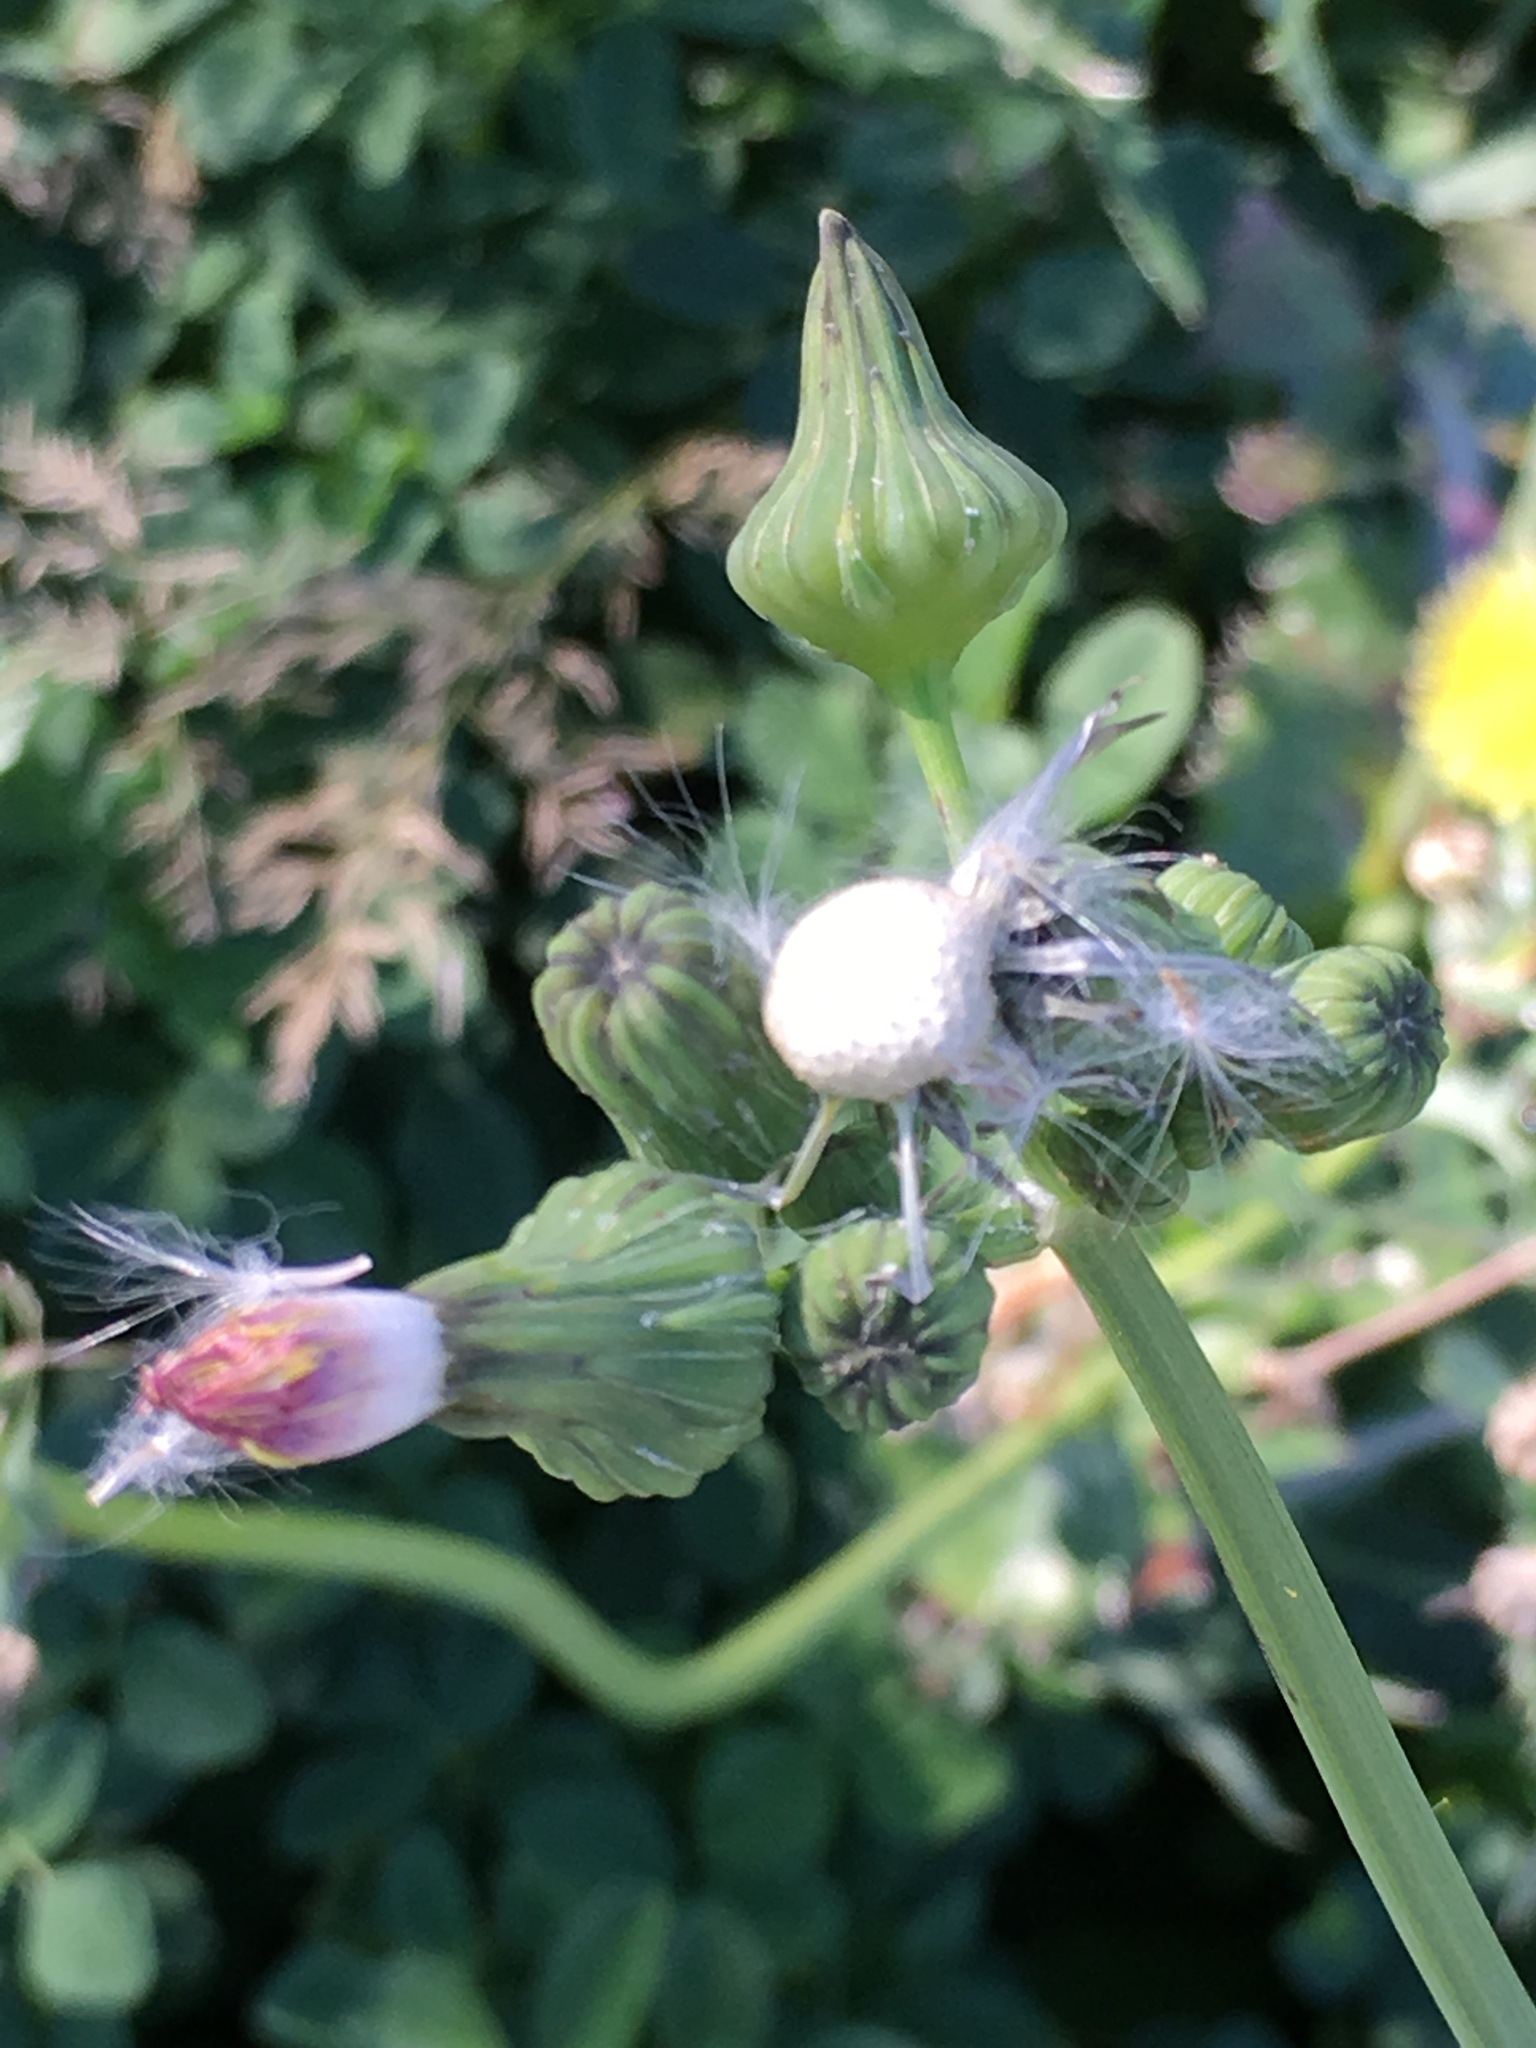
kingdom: Plantae
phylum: Tracheophyta
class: Magnoliopsida
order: Asterales
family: Asteraceae
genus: Sonchus
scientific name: Sonchus oleraceus
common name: Common sowthistle
